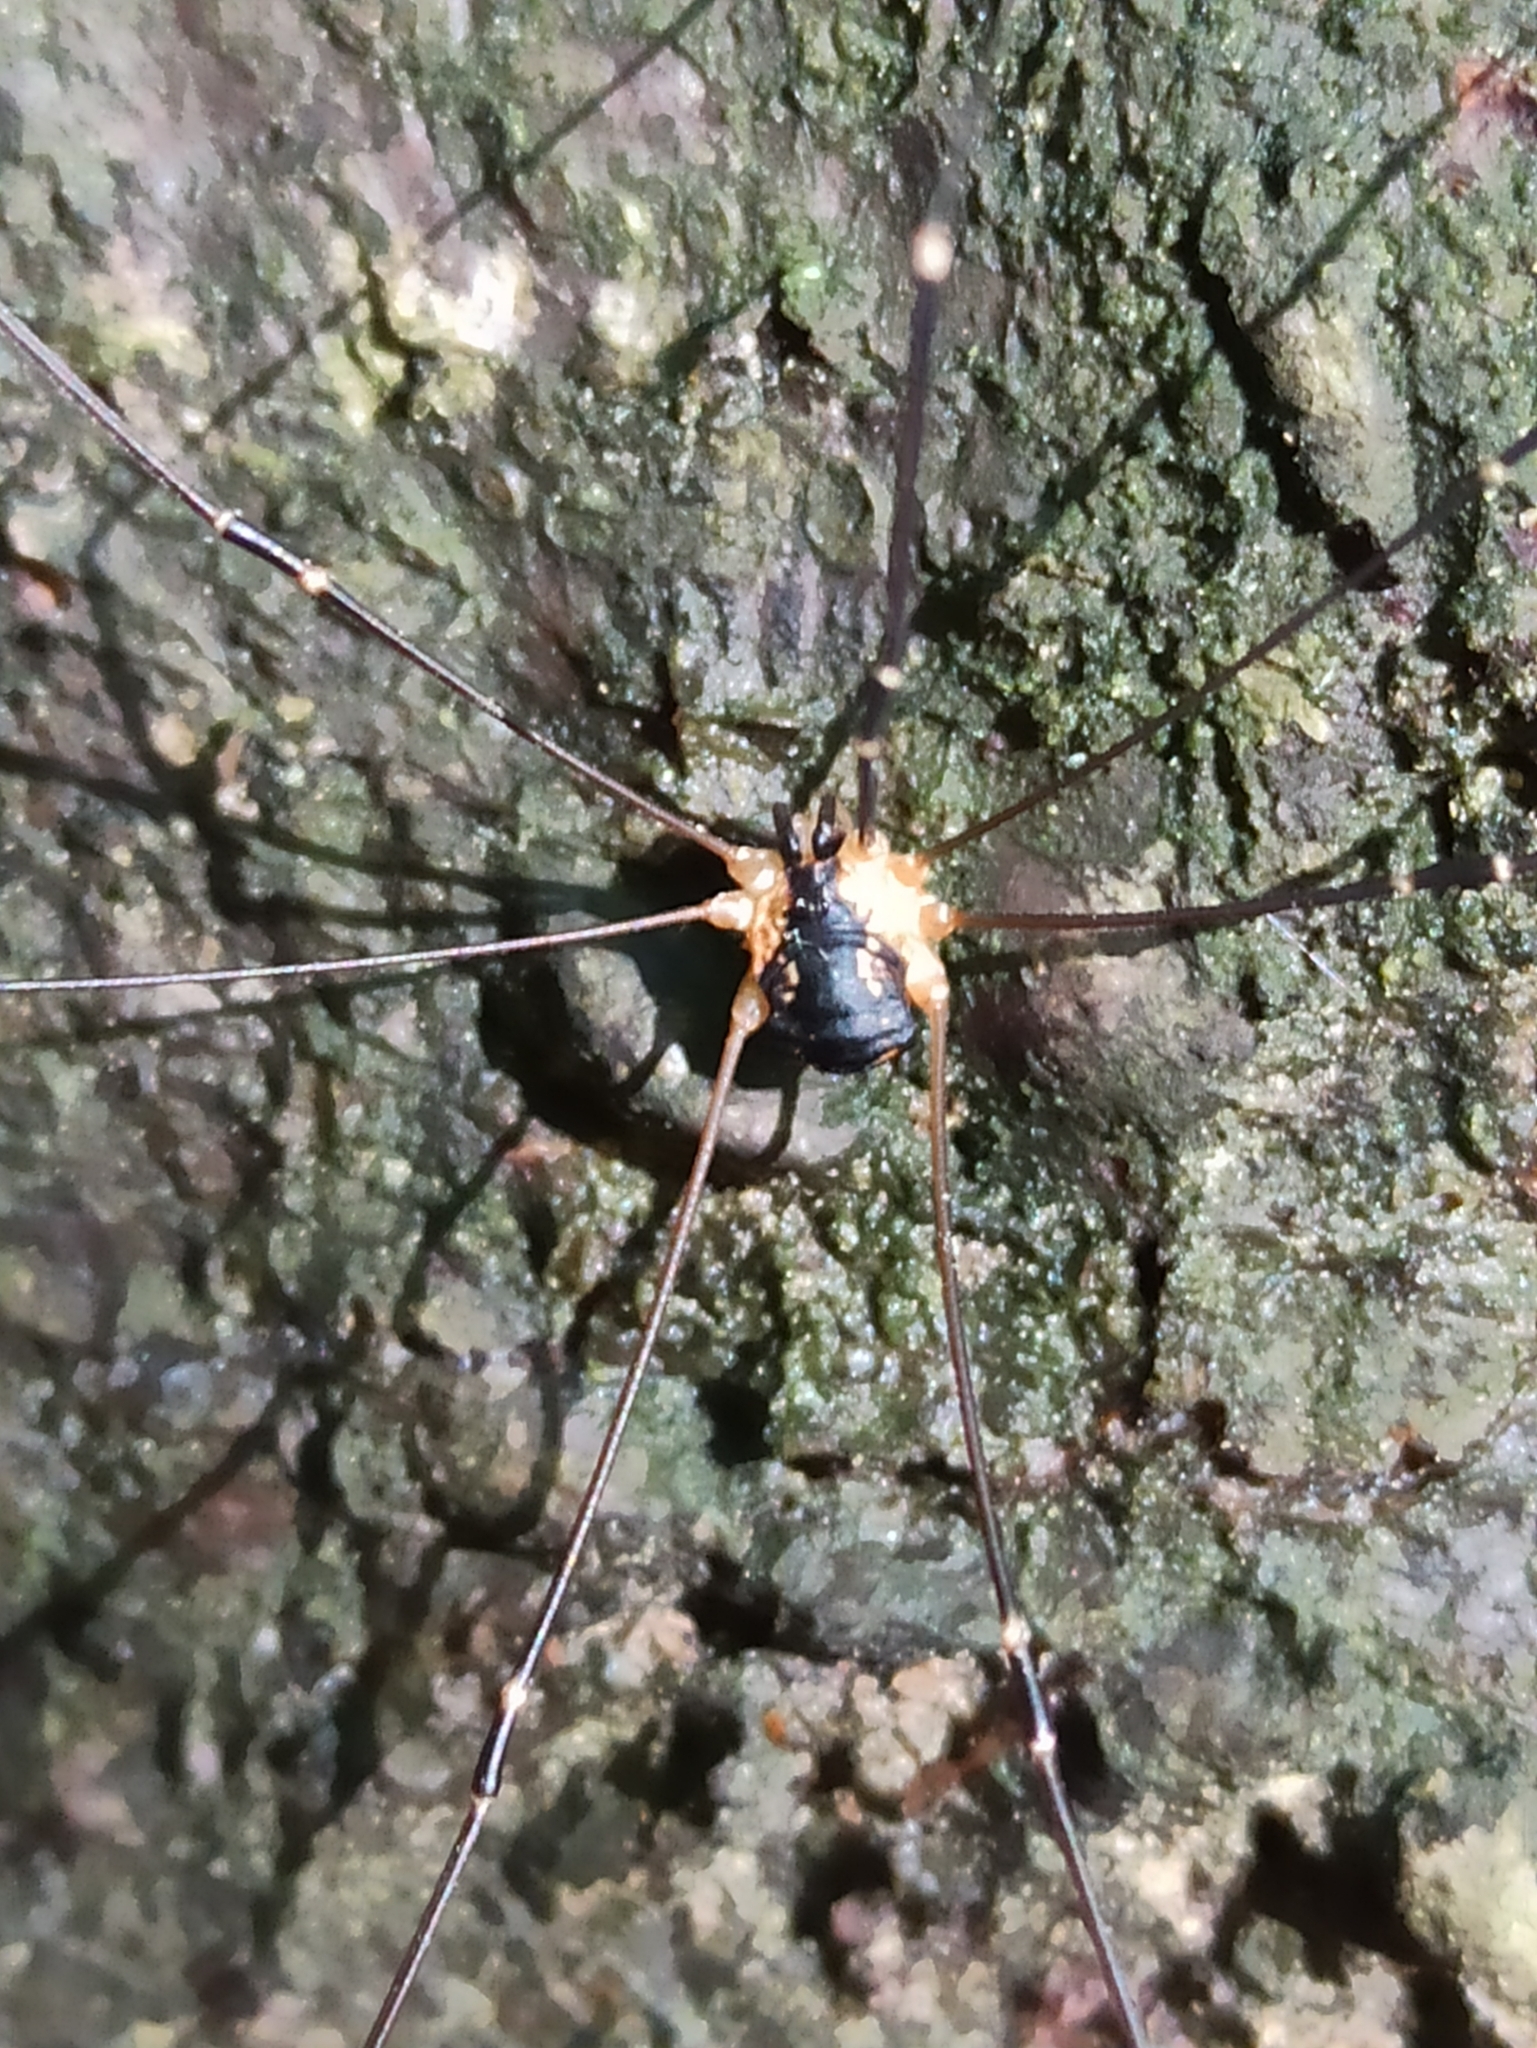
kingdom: Animalia
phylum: Arthropoda
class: Arachnida
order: Opiliones
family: Sclerosomatidae
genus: Leiobunum
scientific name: Leiobunum gracile
